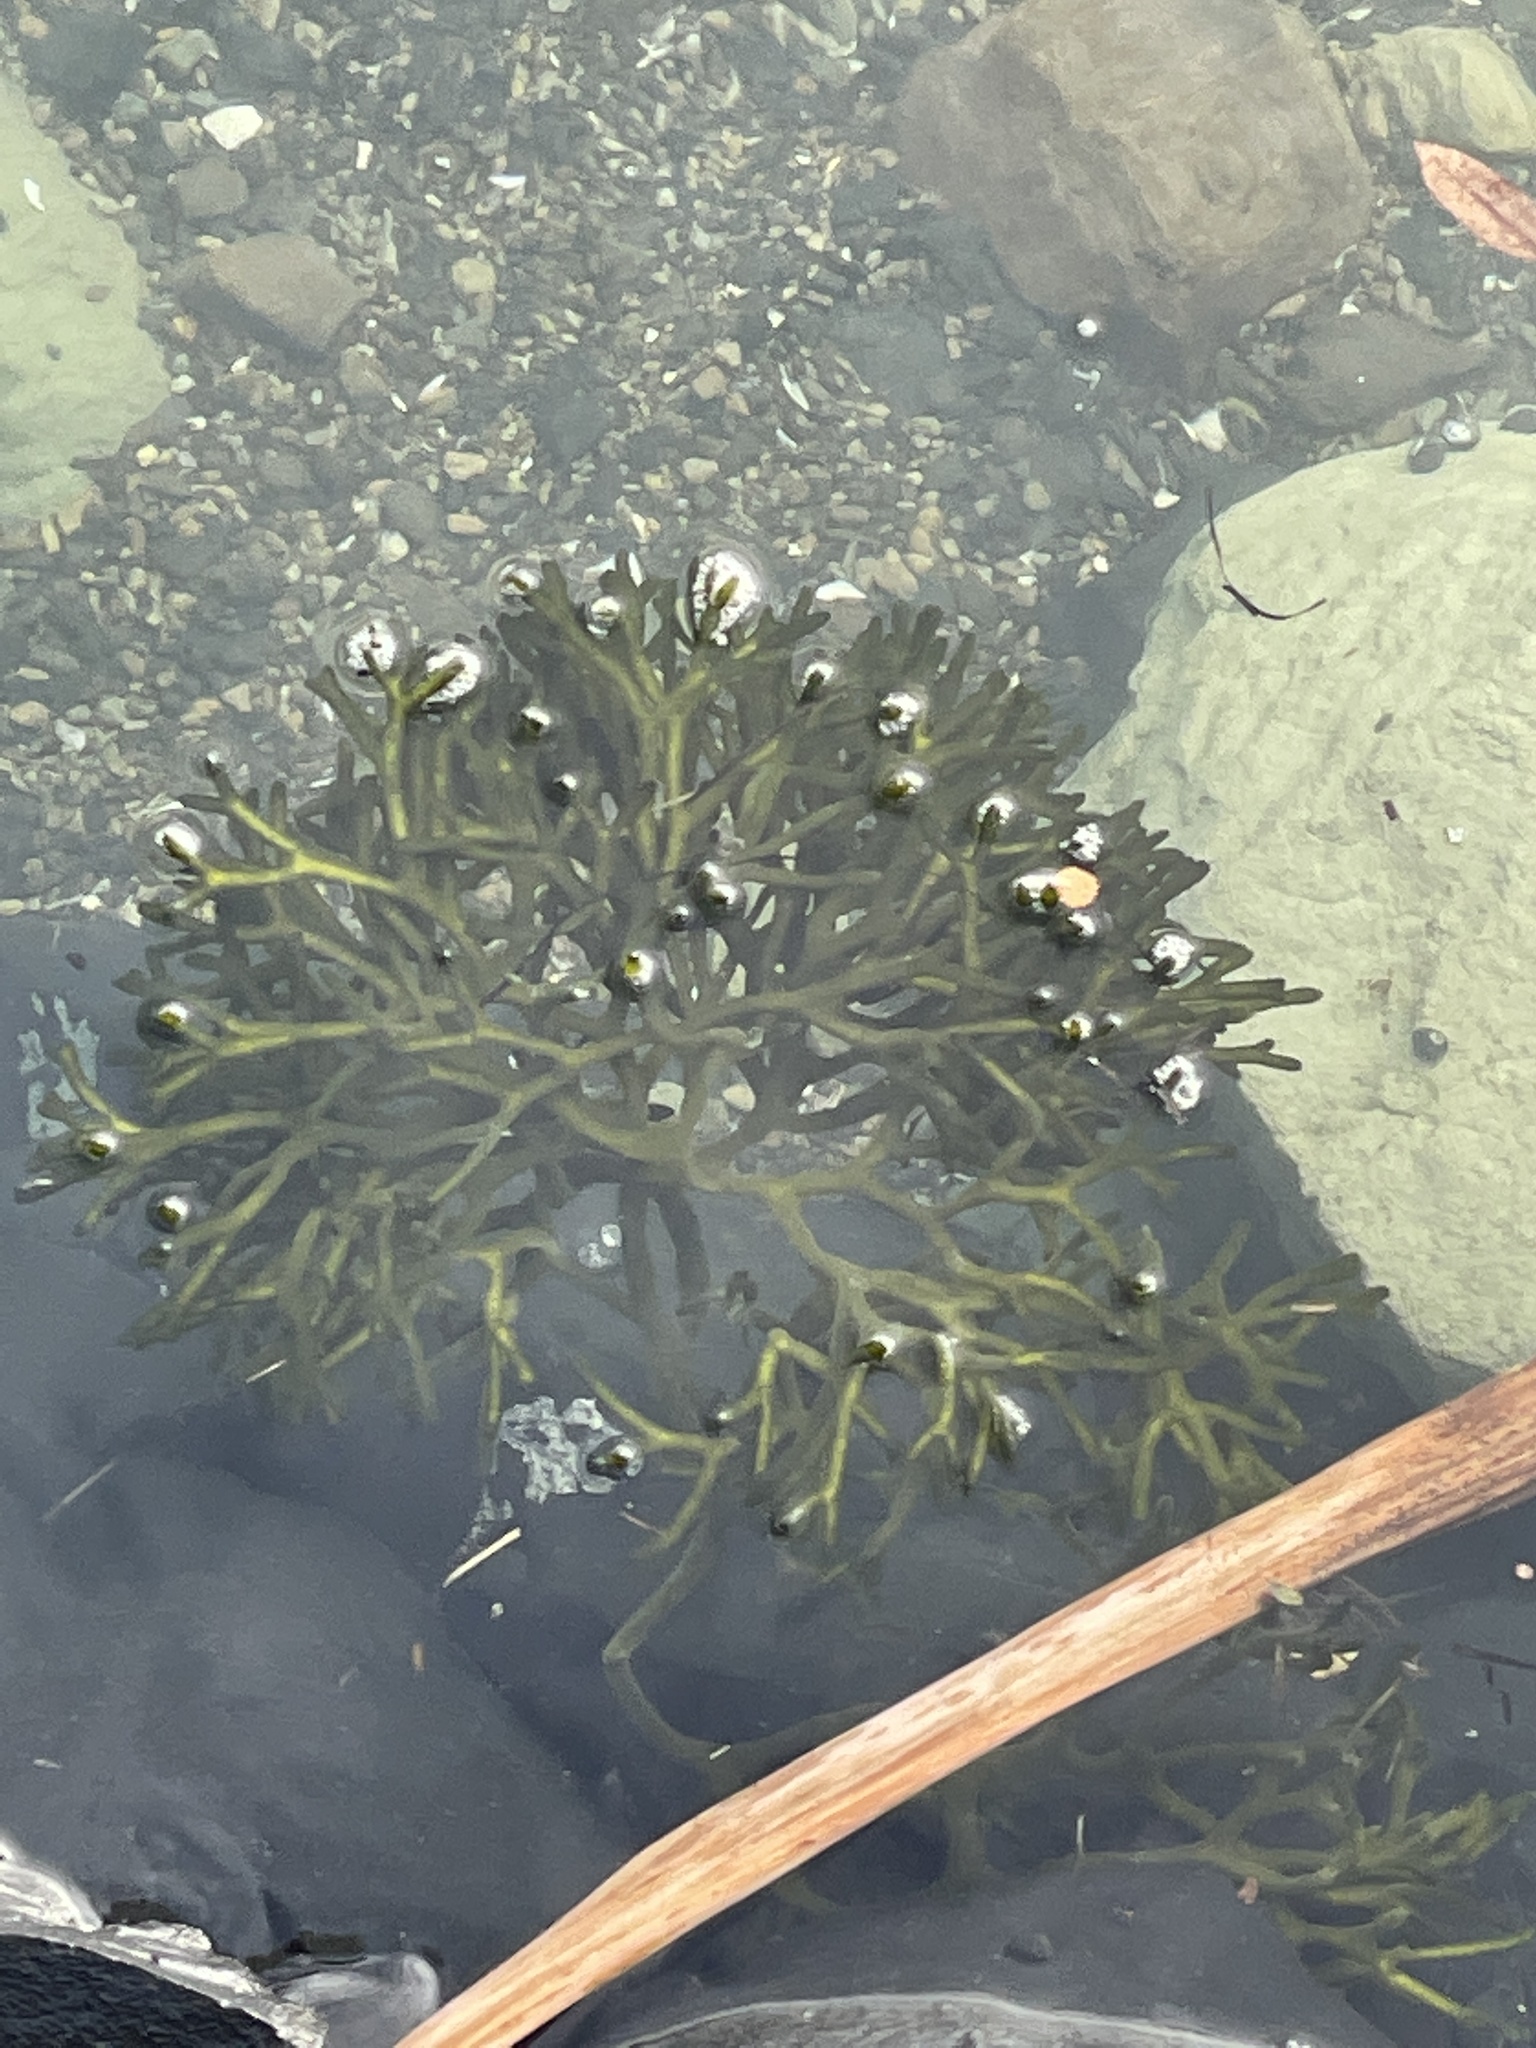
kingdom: Plantae
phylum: Chlorophyta
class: Ulvophyceae
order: Bryopsidales
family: Codiaceae
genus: Codium
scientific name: Codium fragile
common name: Dead man's fingers
